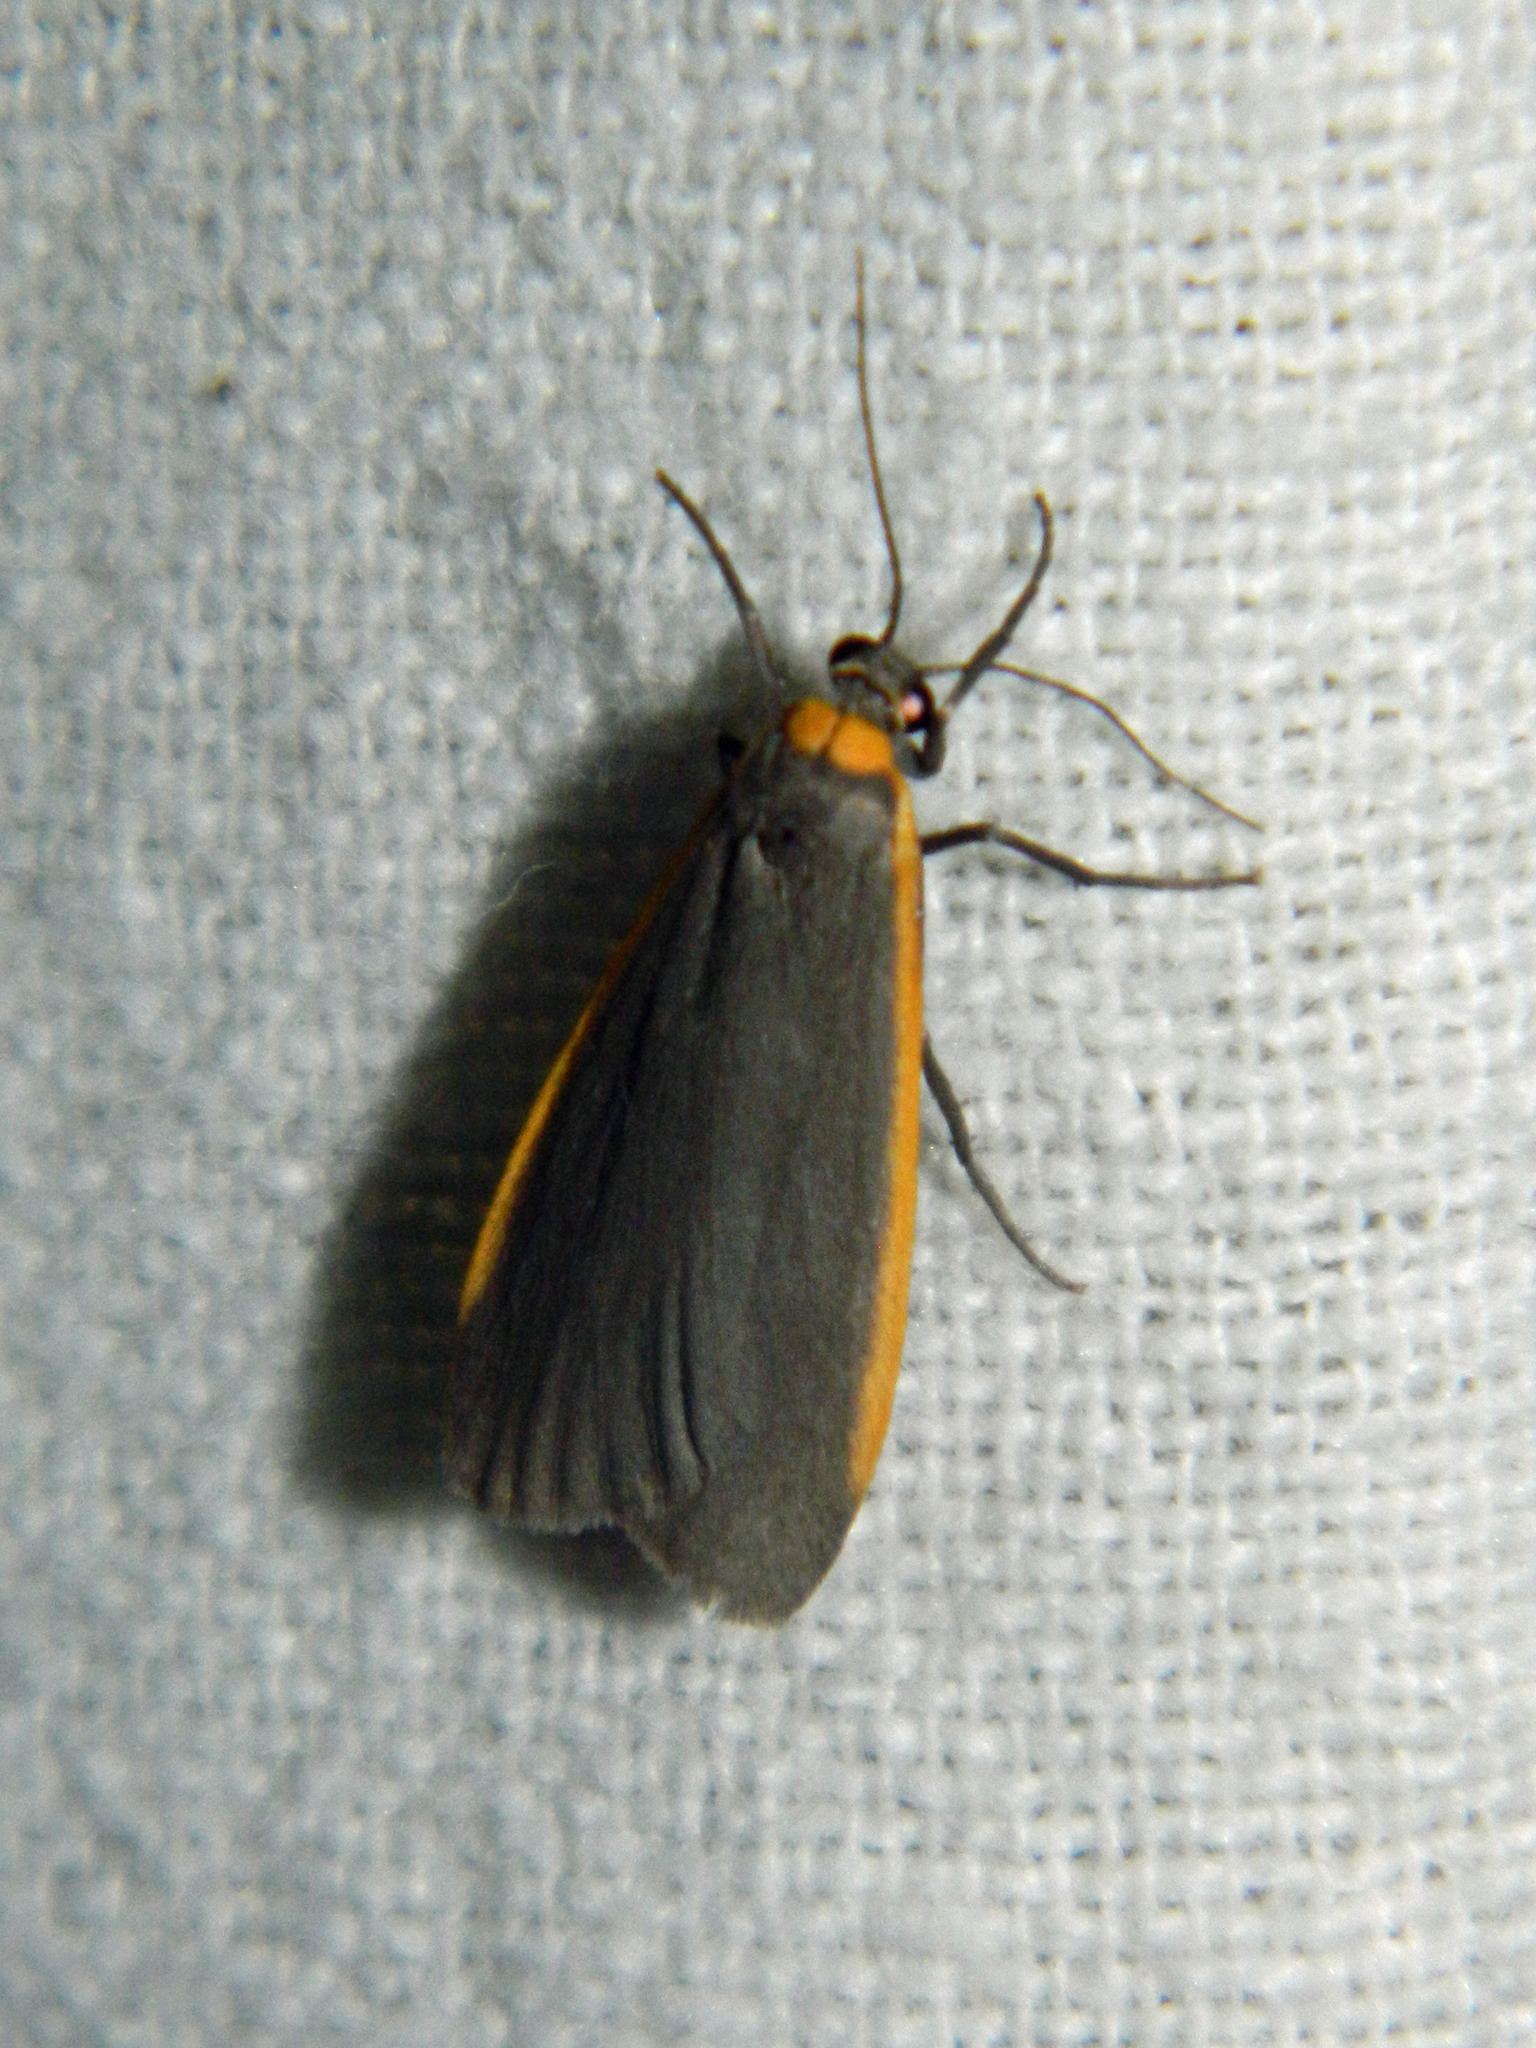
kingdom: Animalia
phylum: Arthropoda
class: Insecta
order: Lepidoptera
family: Erebidae
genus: Manulea
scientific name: Manulea bicolor
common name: Bicolored moth
